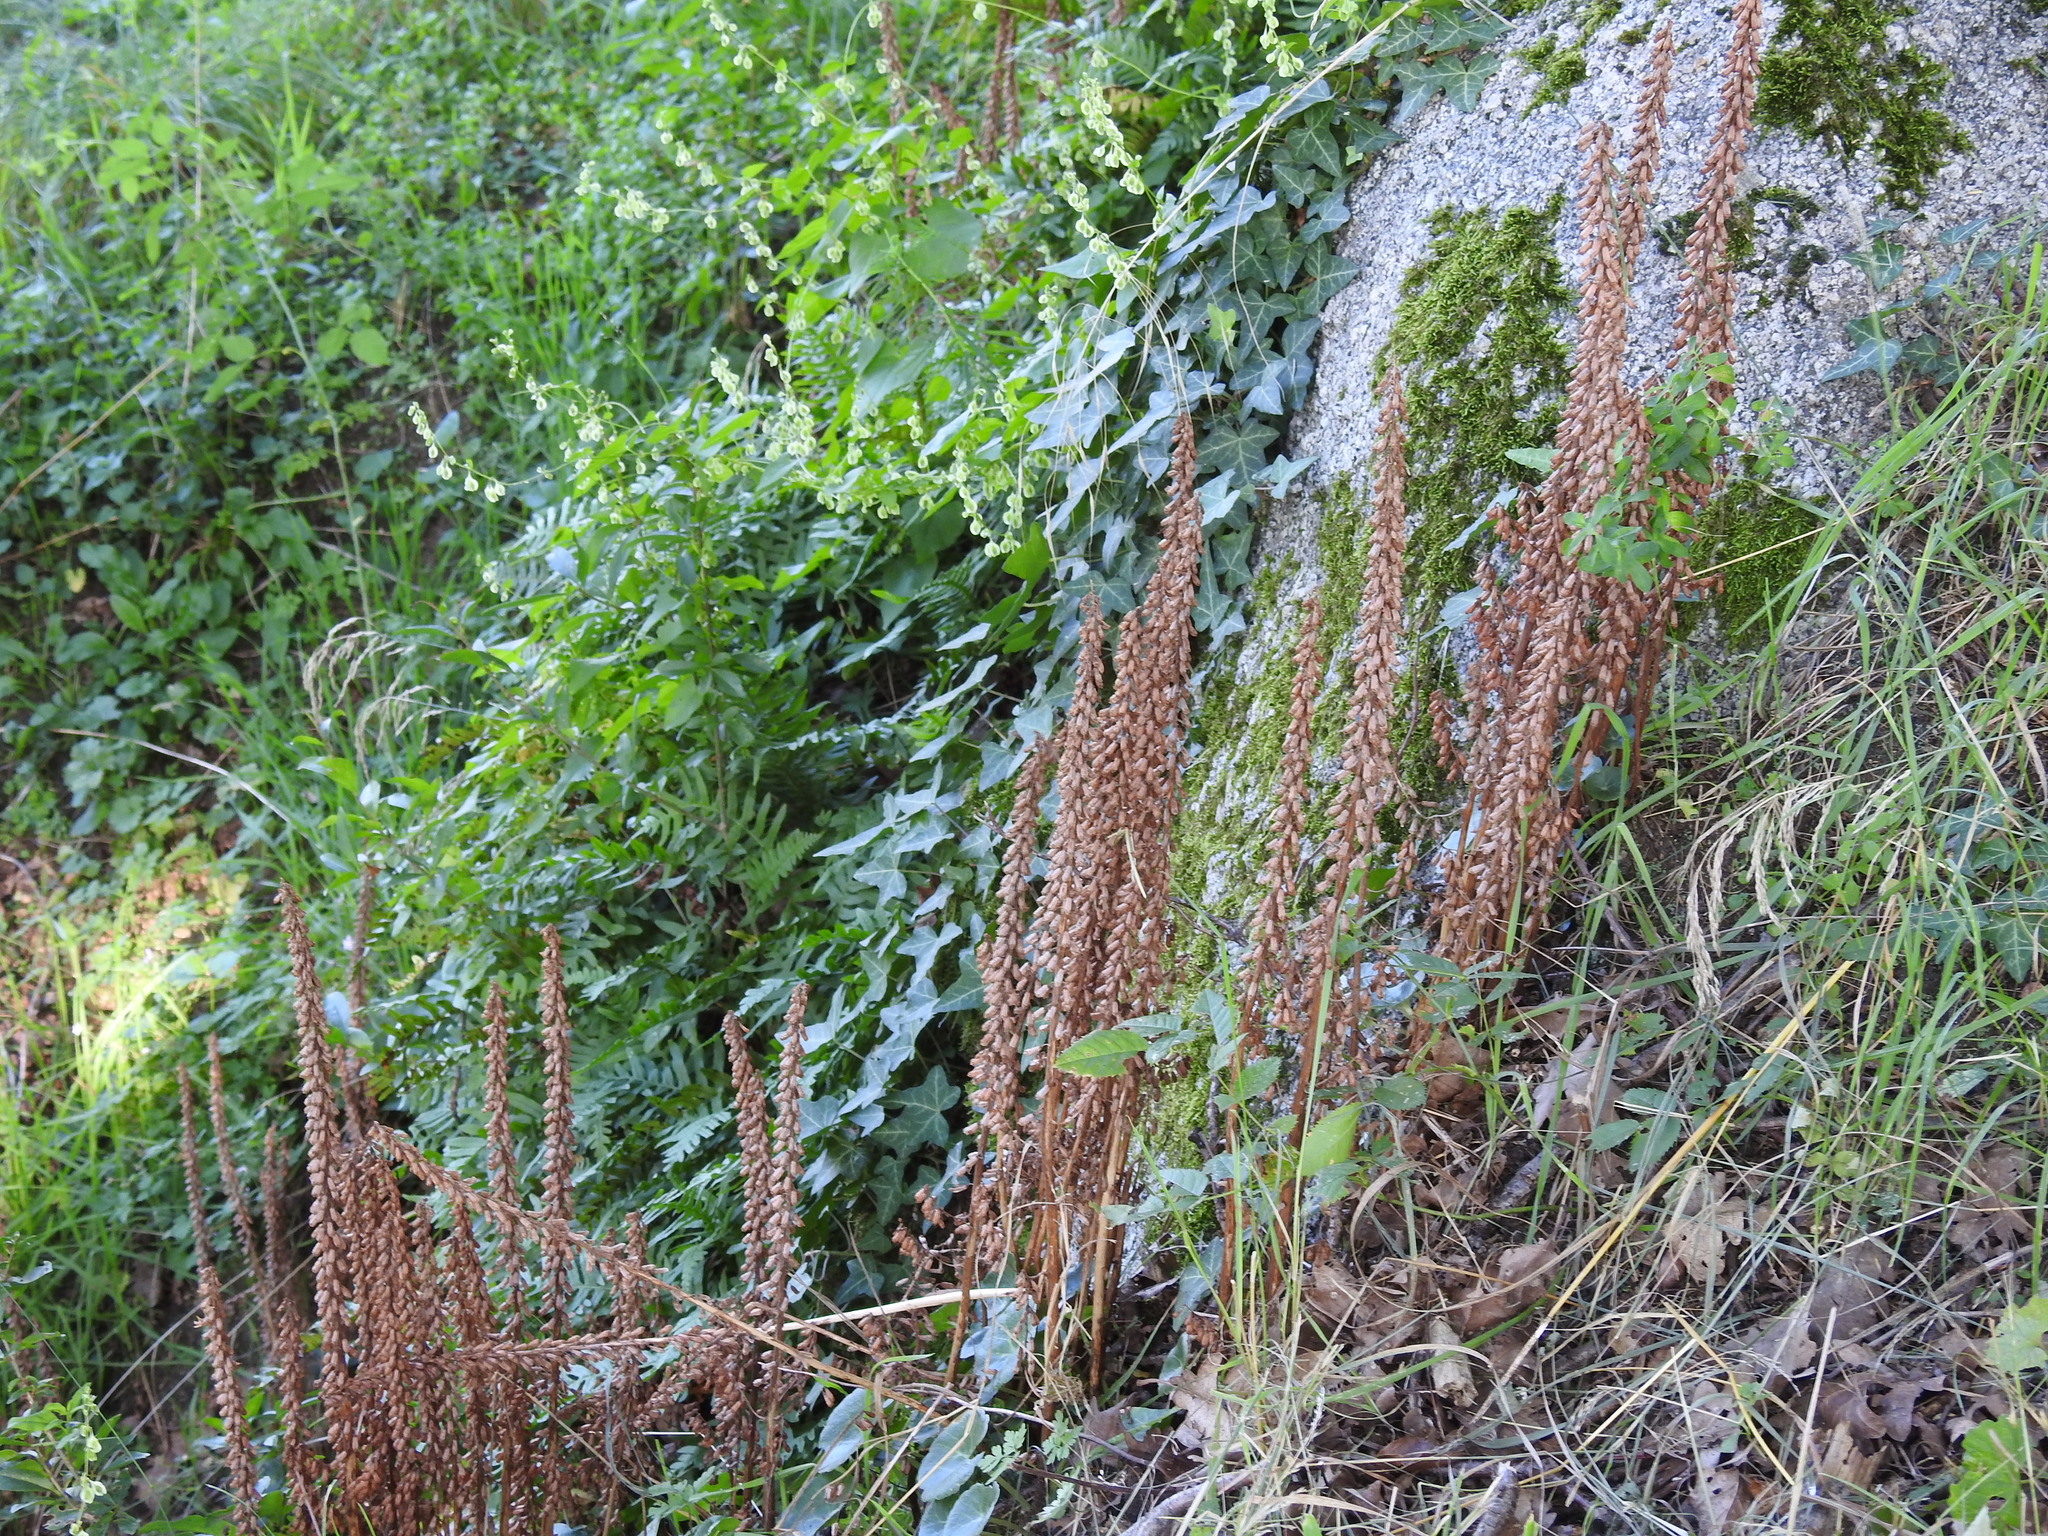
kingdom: Plantae
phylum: Tracheophyta
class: Magnoliopsida
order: Saxifragales
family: Crassulaceae
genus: Umbilicus
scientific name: Umbilicus rupestris
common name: Navelwort
